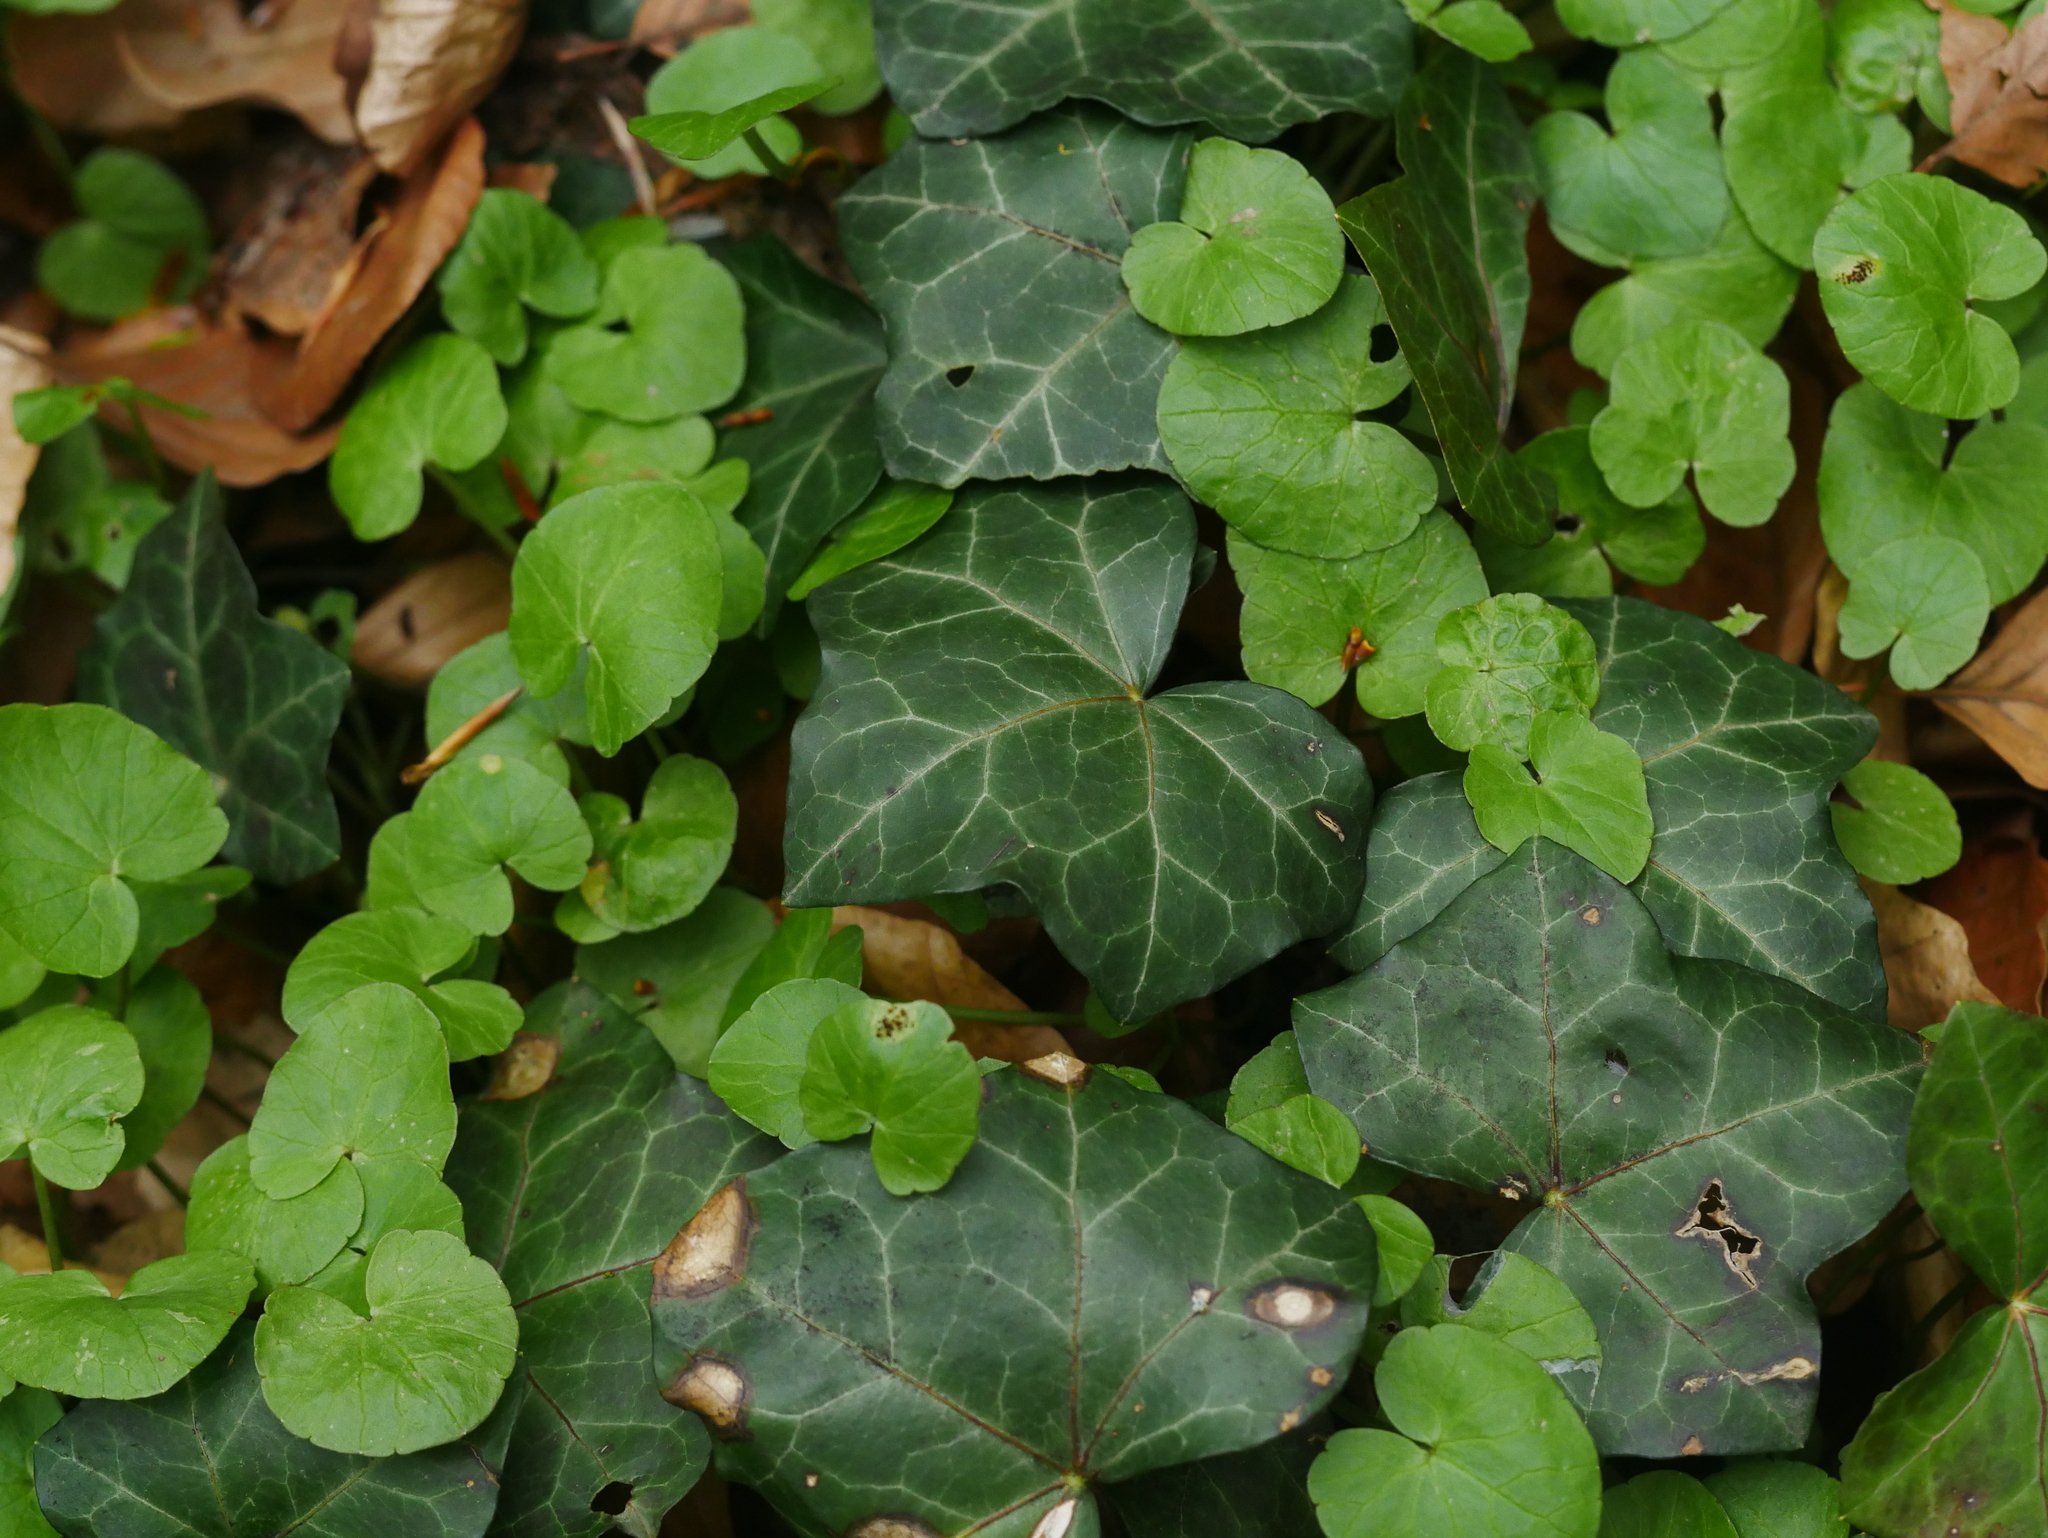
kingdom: Plantae
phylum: Tracheophyta
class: Magnoliopsida
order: Apiales
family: Araliaceae
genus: Hedera
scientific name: Hedera helix
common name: Ivy
